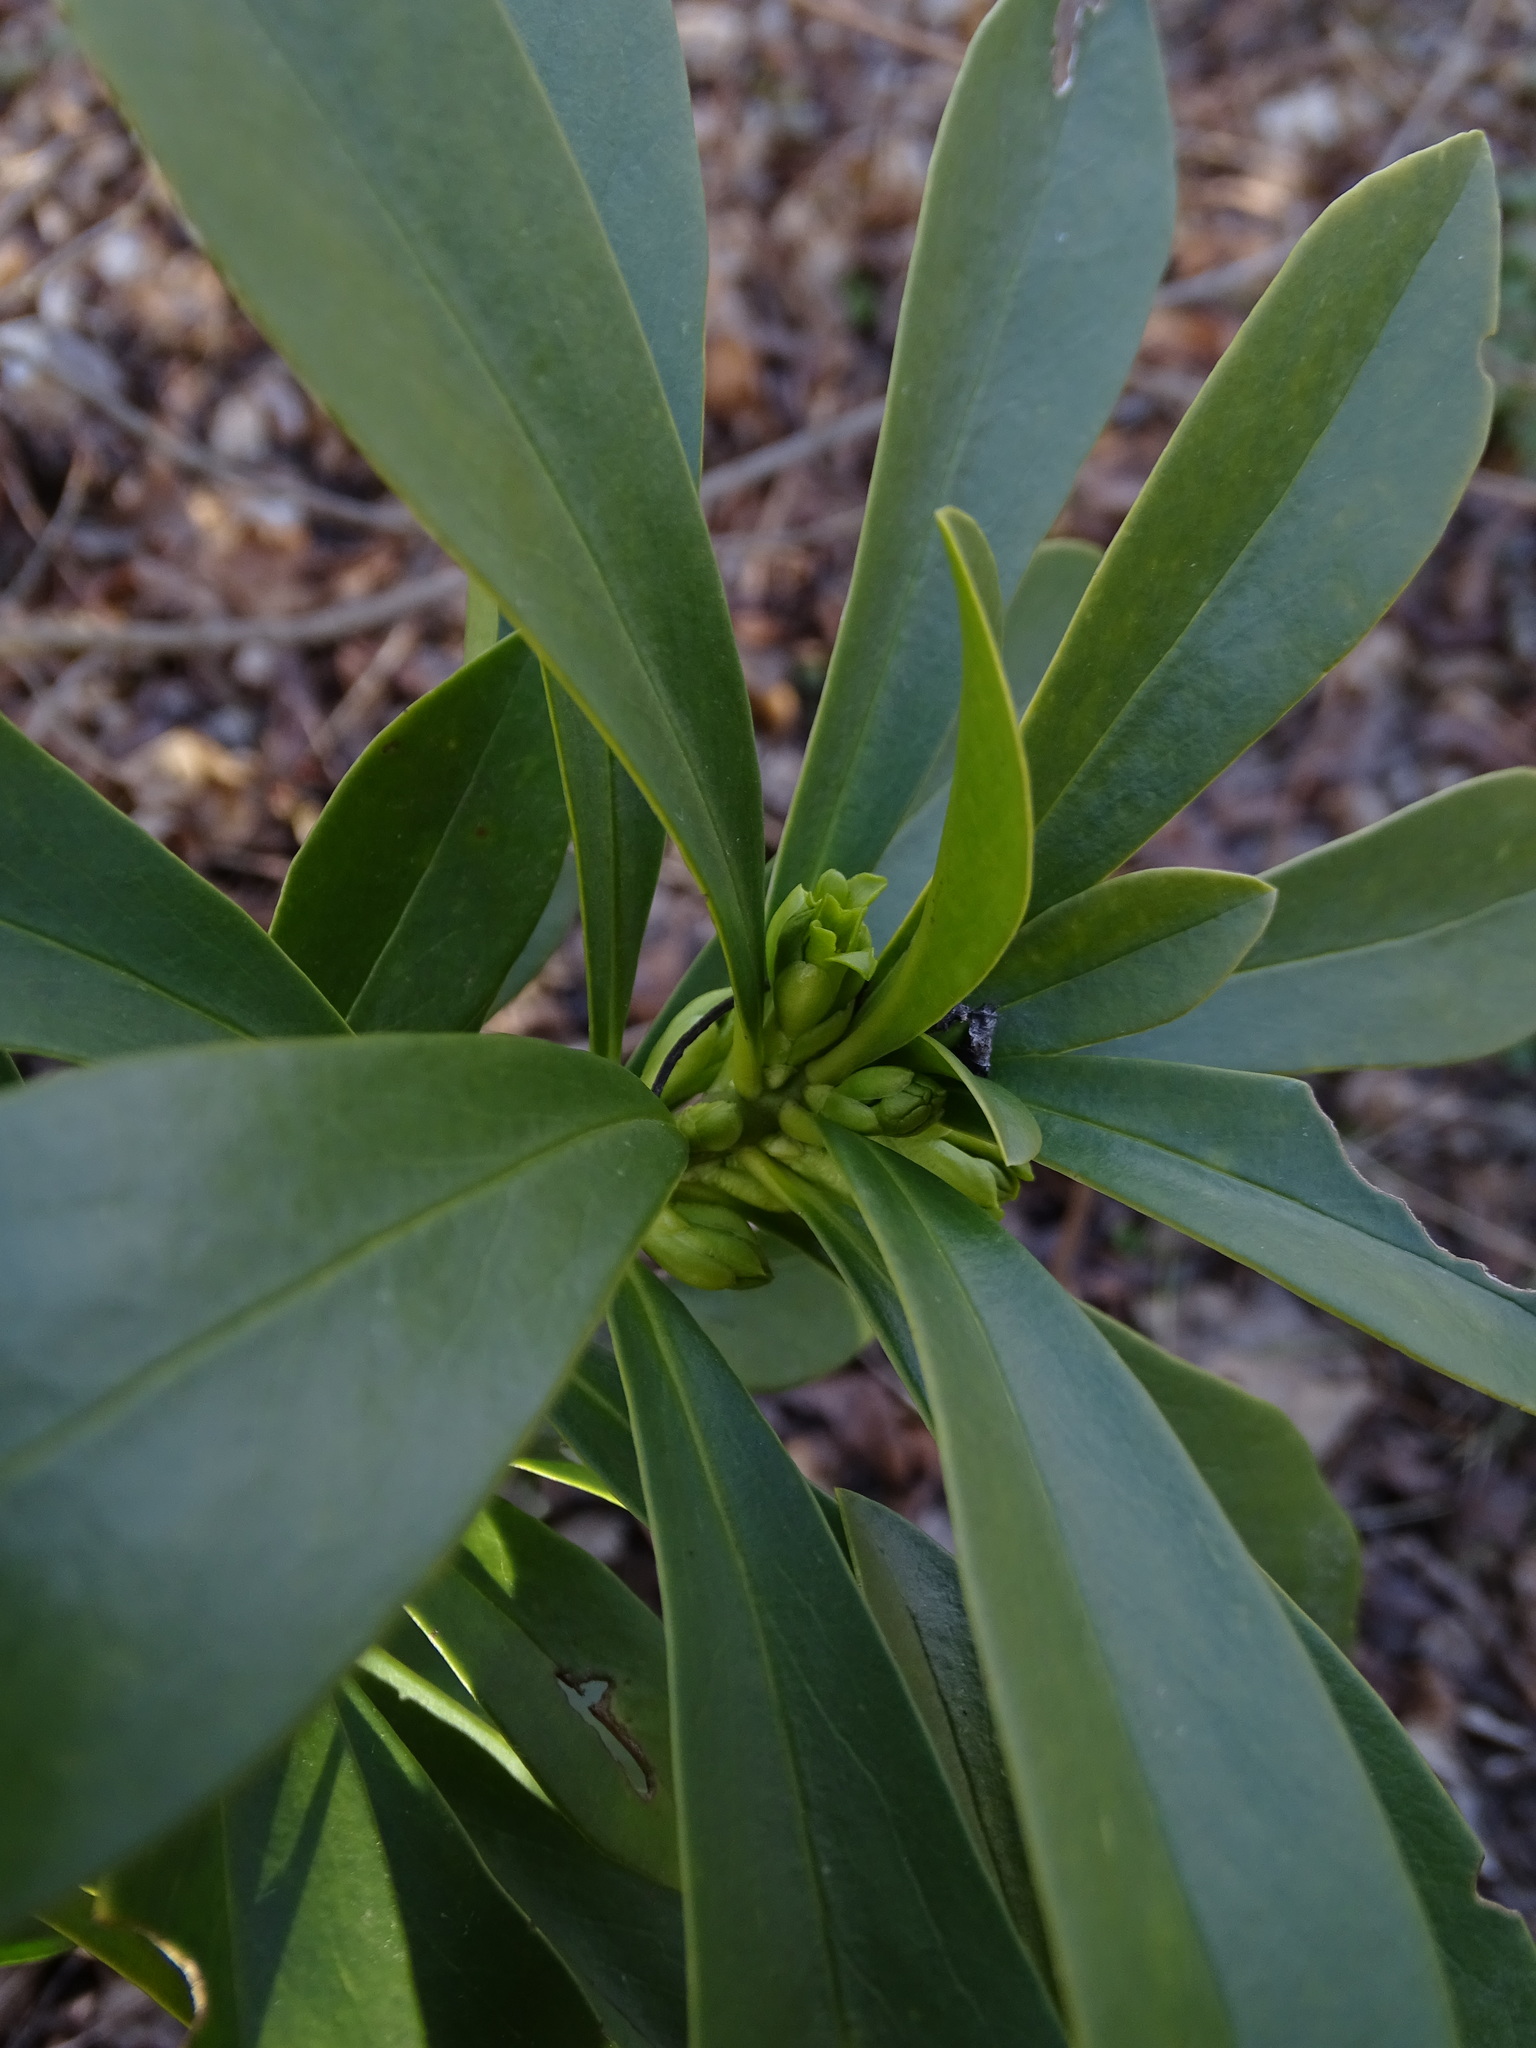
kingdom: Plantae
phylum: Tracheophyta
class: Magnoliopsida
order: Malvales
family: Thymelaeaceae
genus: Daphne
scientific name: Daphne laureola
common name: Spurge-laurel
